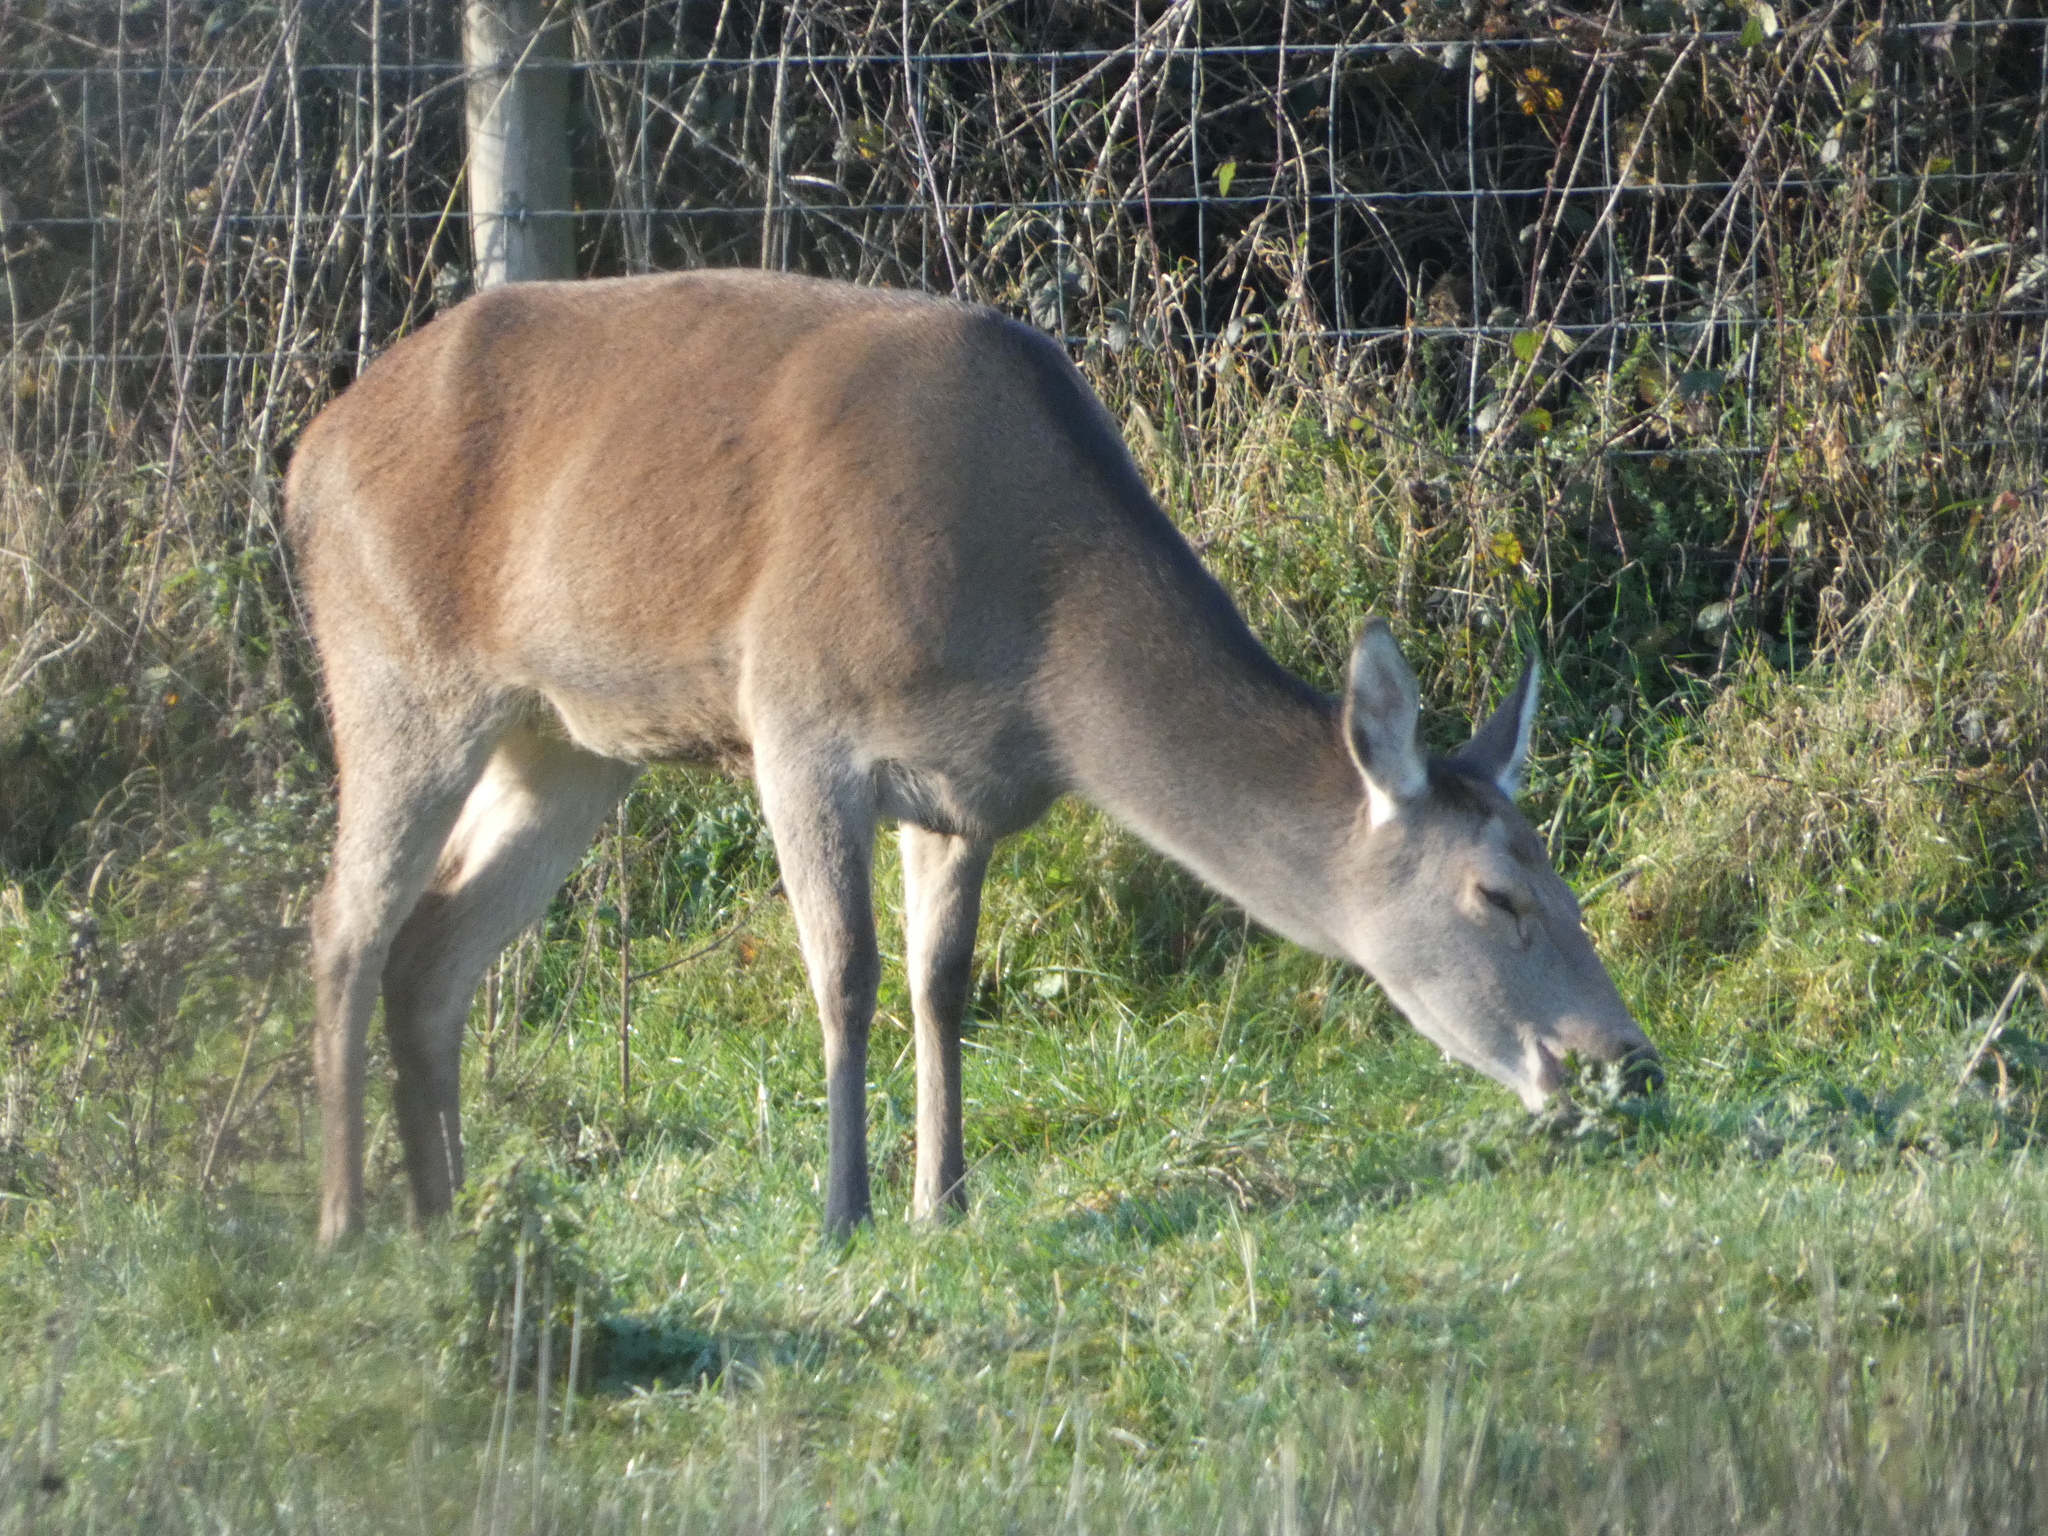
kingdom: Animalia
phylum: Chordata
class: Mammalia
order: Artiodactyla
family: Cervidae
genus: Cervus
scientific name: Cervus elaphus
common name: Red deer
